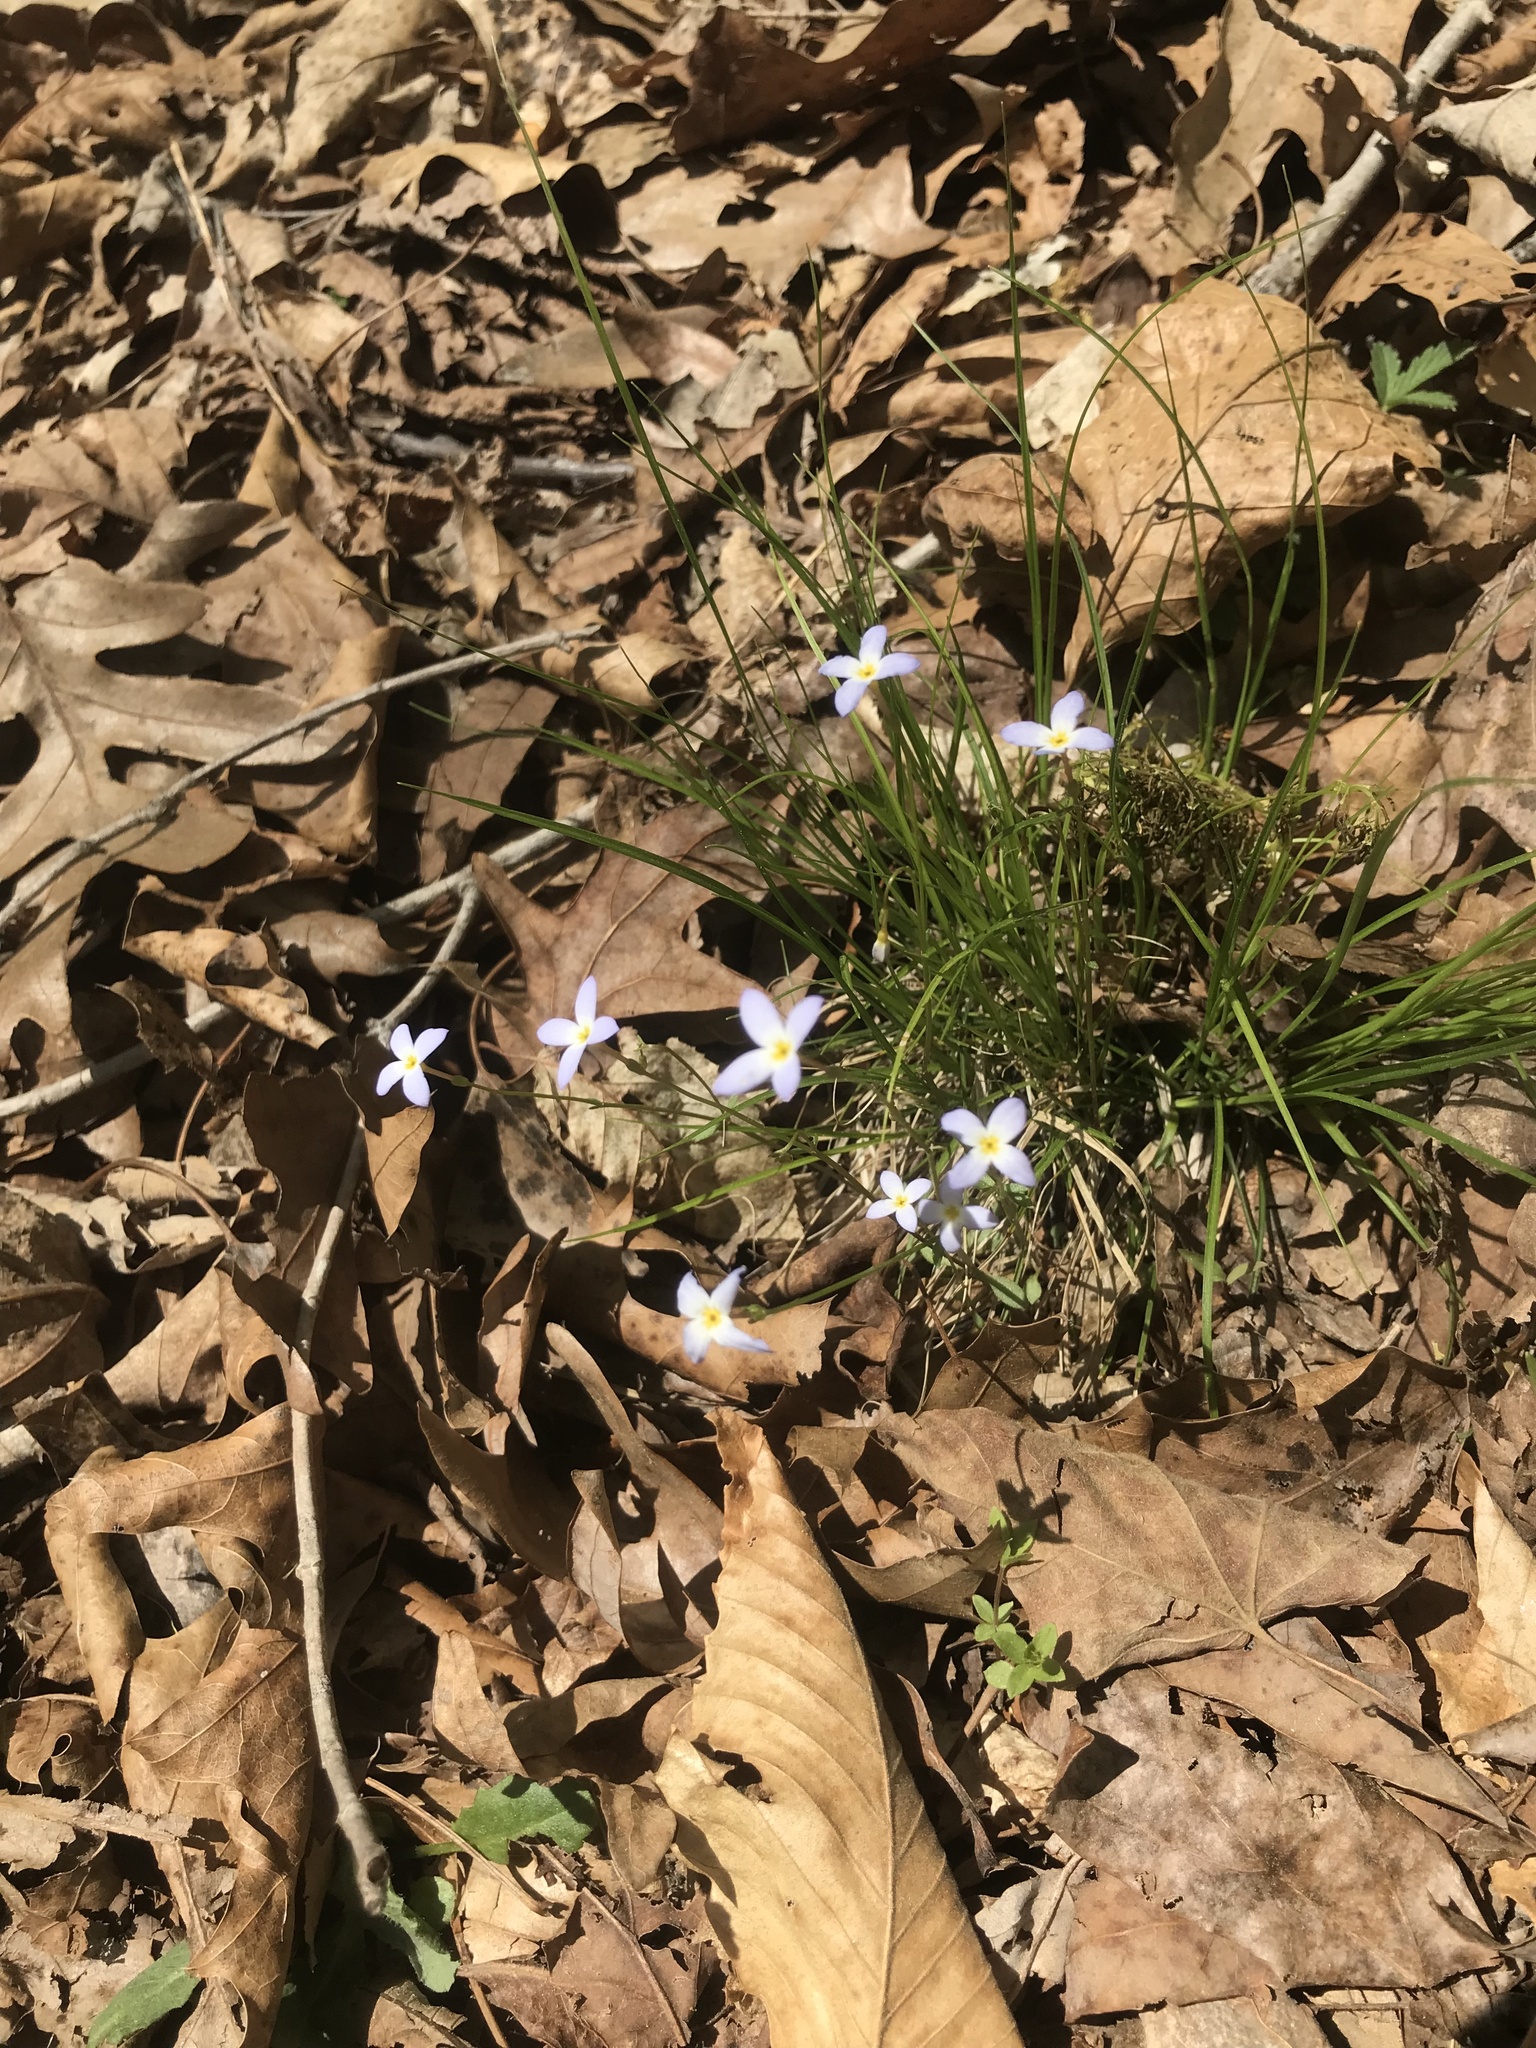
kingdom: Plantae
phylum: Tracheophyta
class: Magnoliopsida
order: Gentianales
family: Rubiaceae
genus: Houstonia
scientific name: Houstonia caerulea
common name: Bluets
